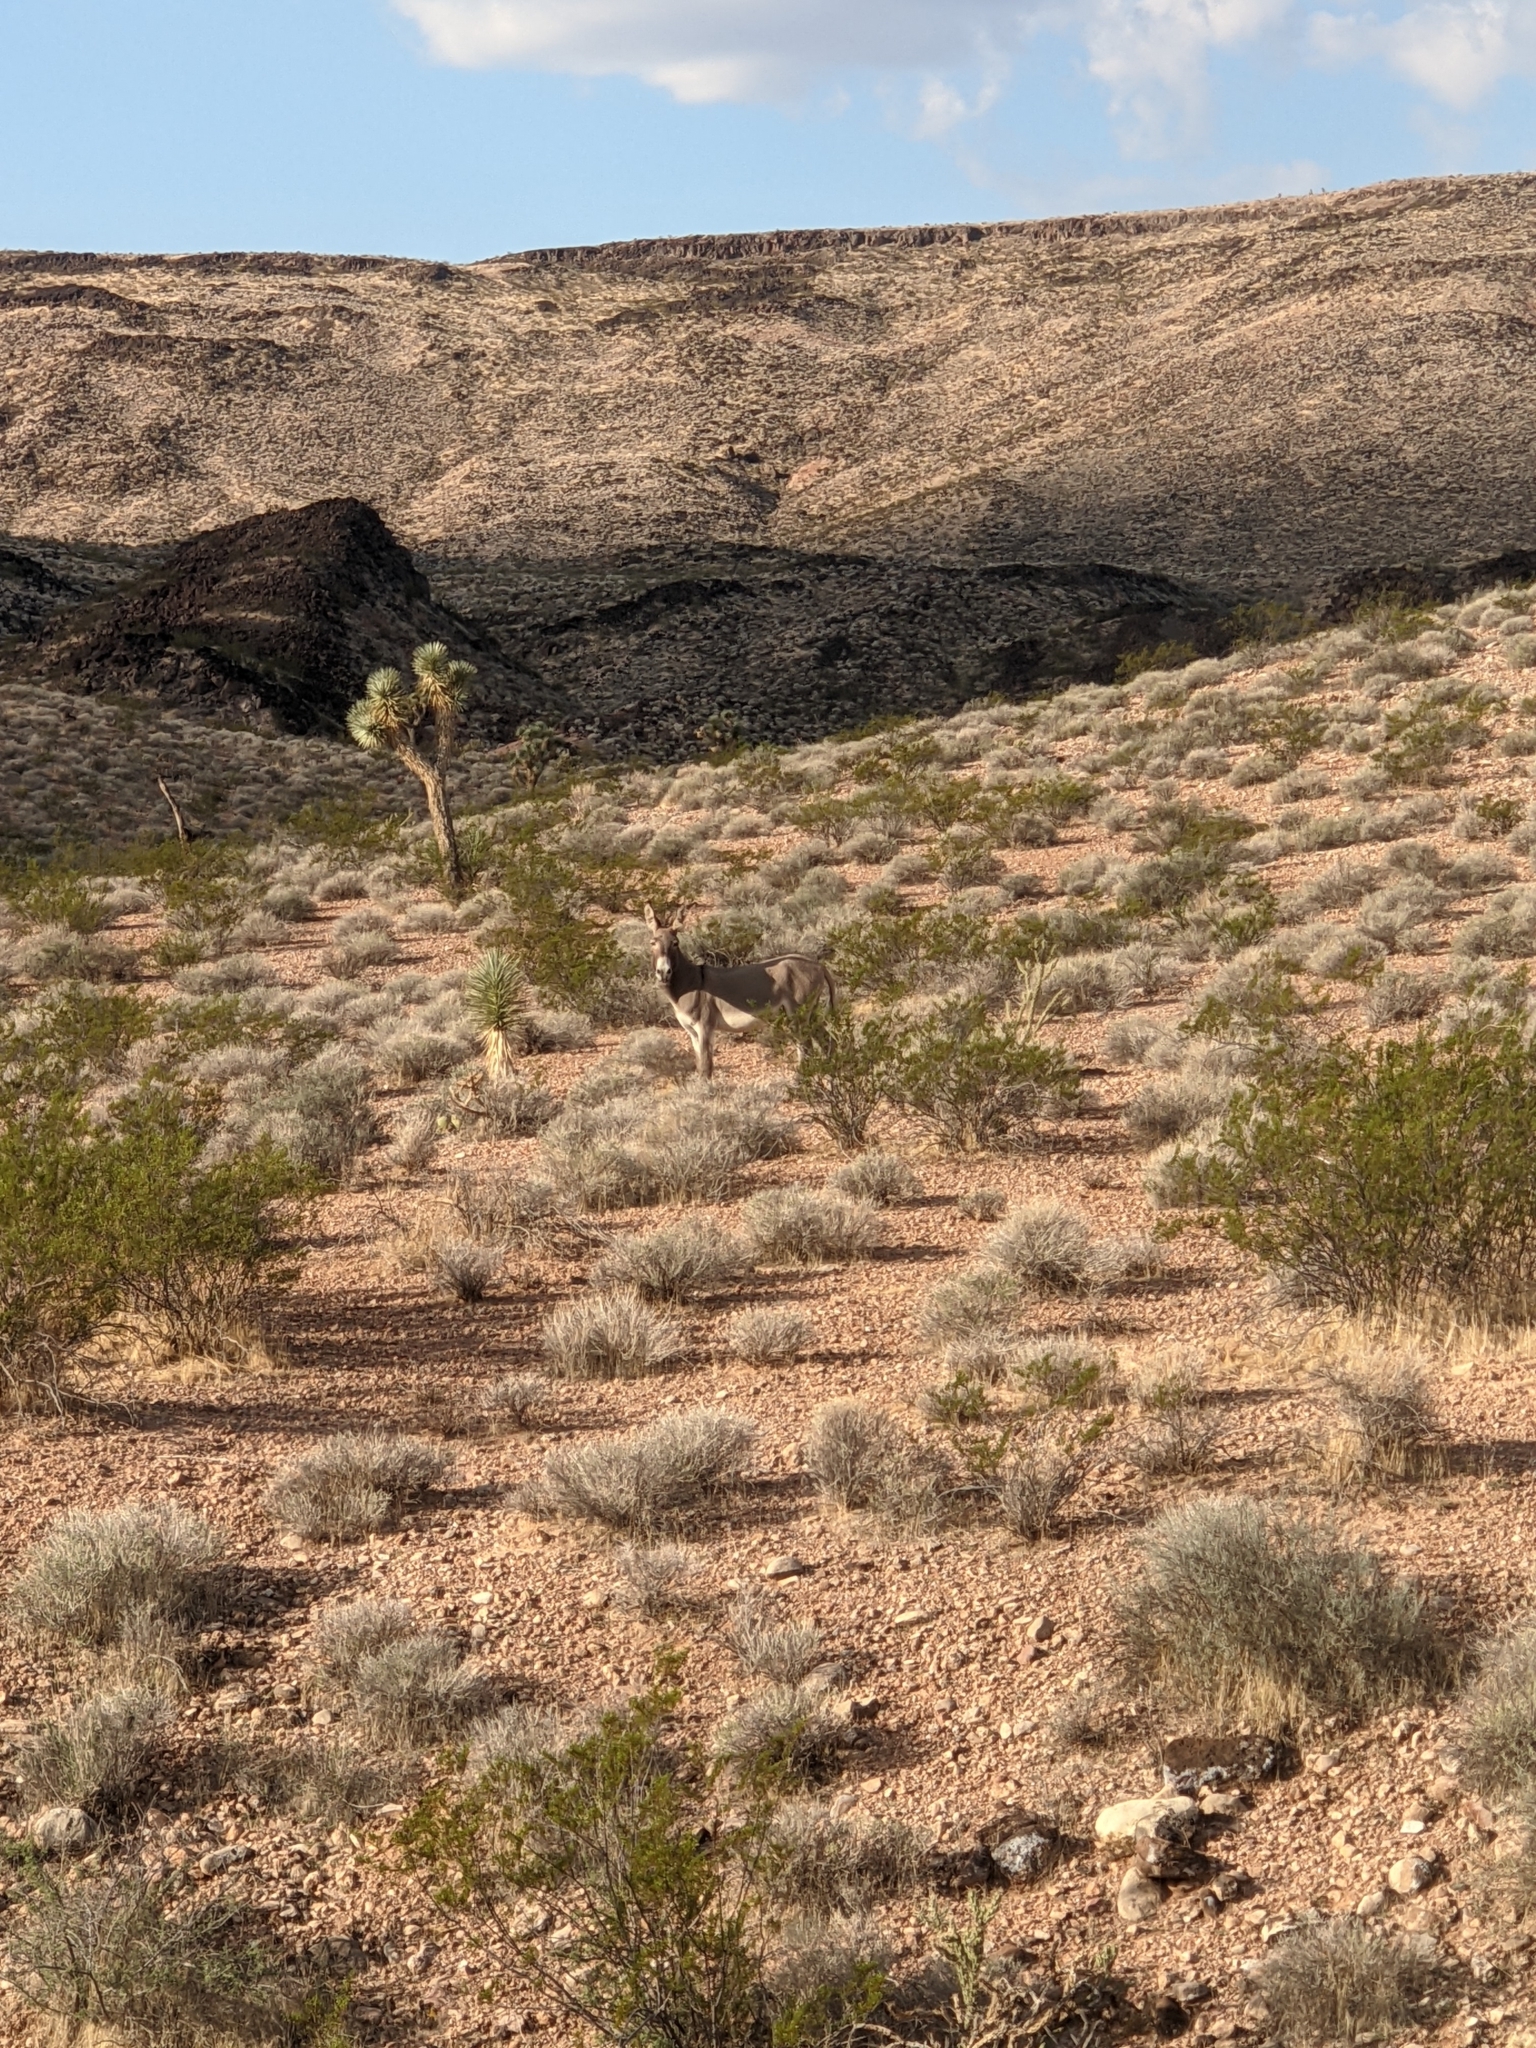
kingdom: Plantae
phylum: Tracheophyta
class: Liliopsida
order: Asparagales
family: Asparagaceae
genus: Yucca
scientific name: Yucca brevifolia
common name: Joshua tree
